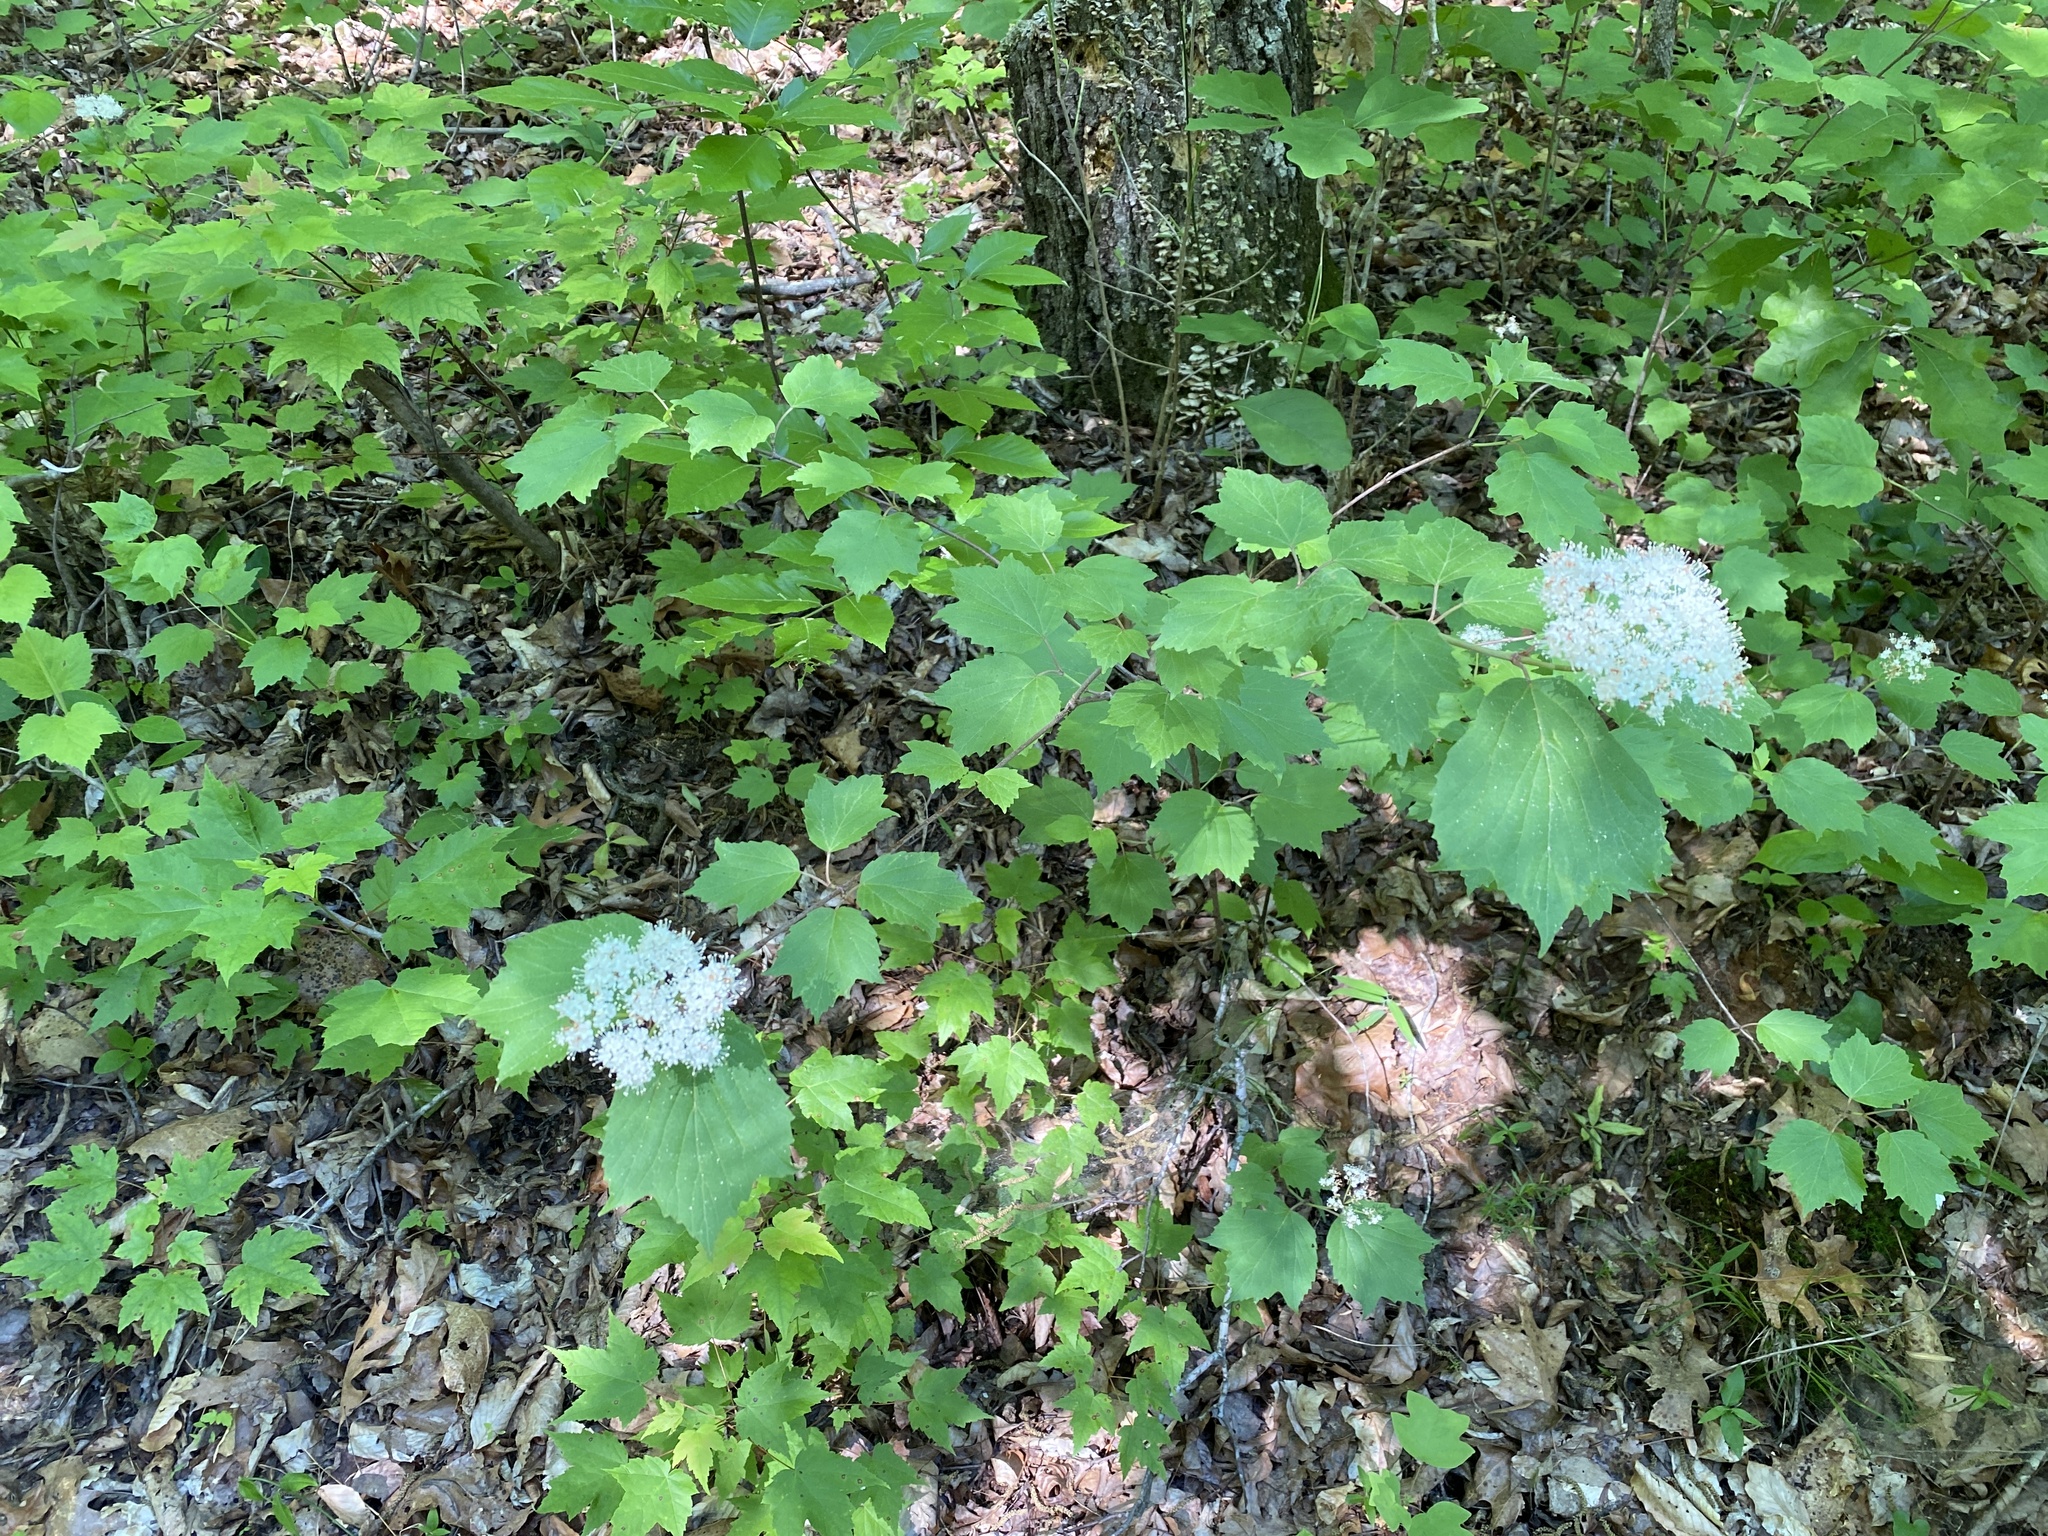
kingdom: Plantae
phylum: Tracheophyta
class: Magnoliopsida
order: Dipsacales
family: Viburnaceae
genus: Viburnum
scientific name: Viburnum acerifolium
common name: Dockmackie
